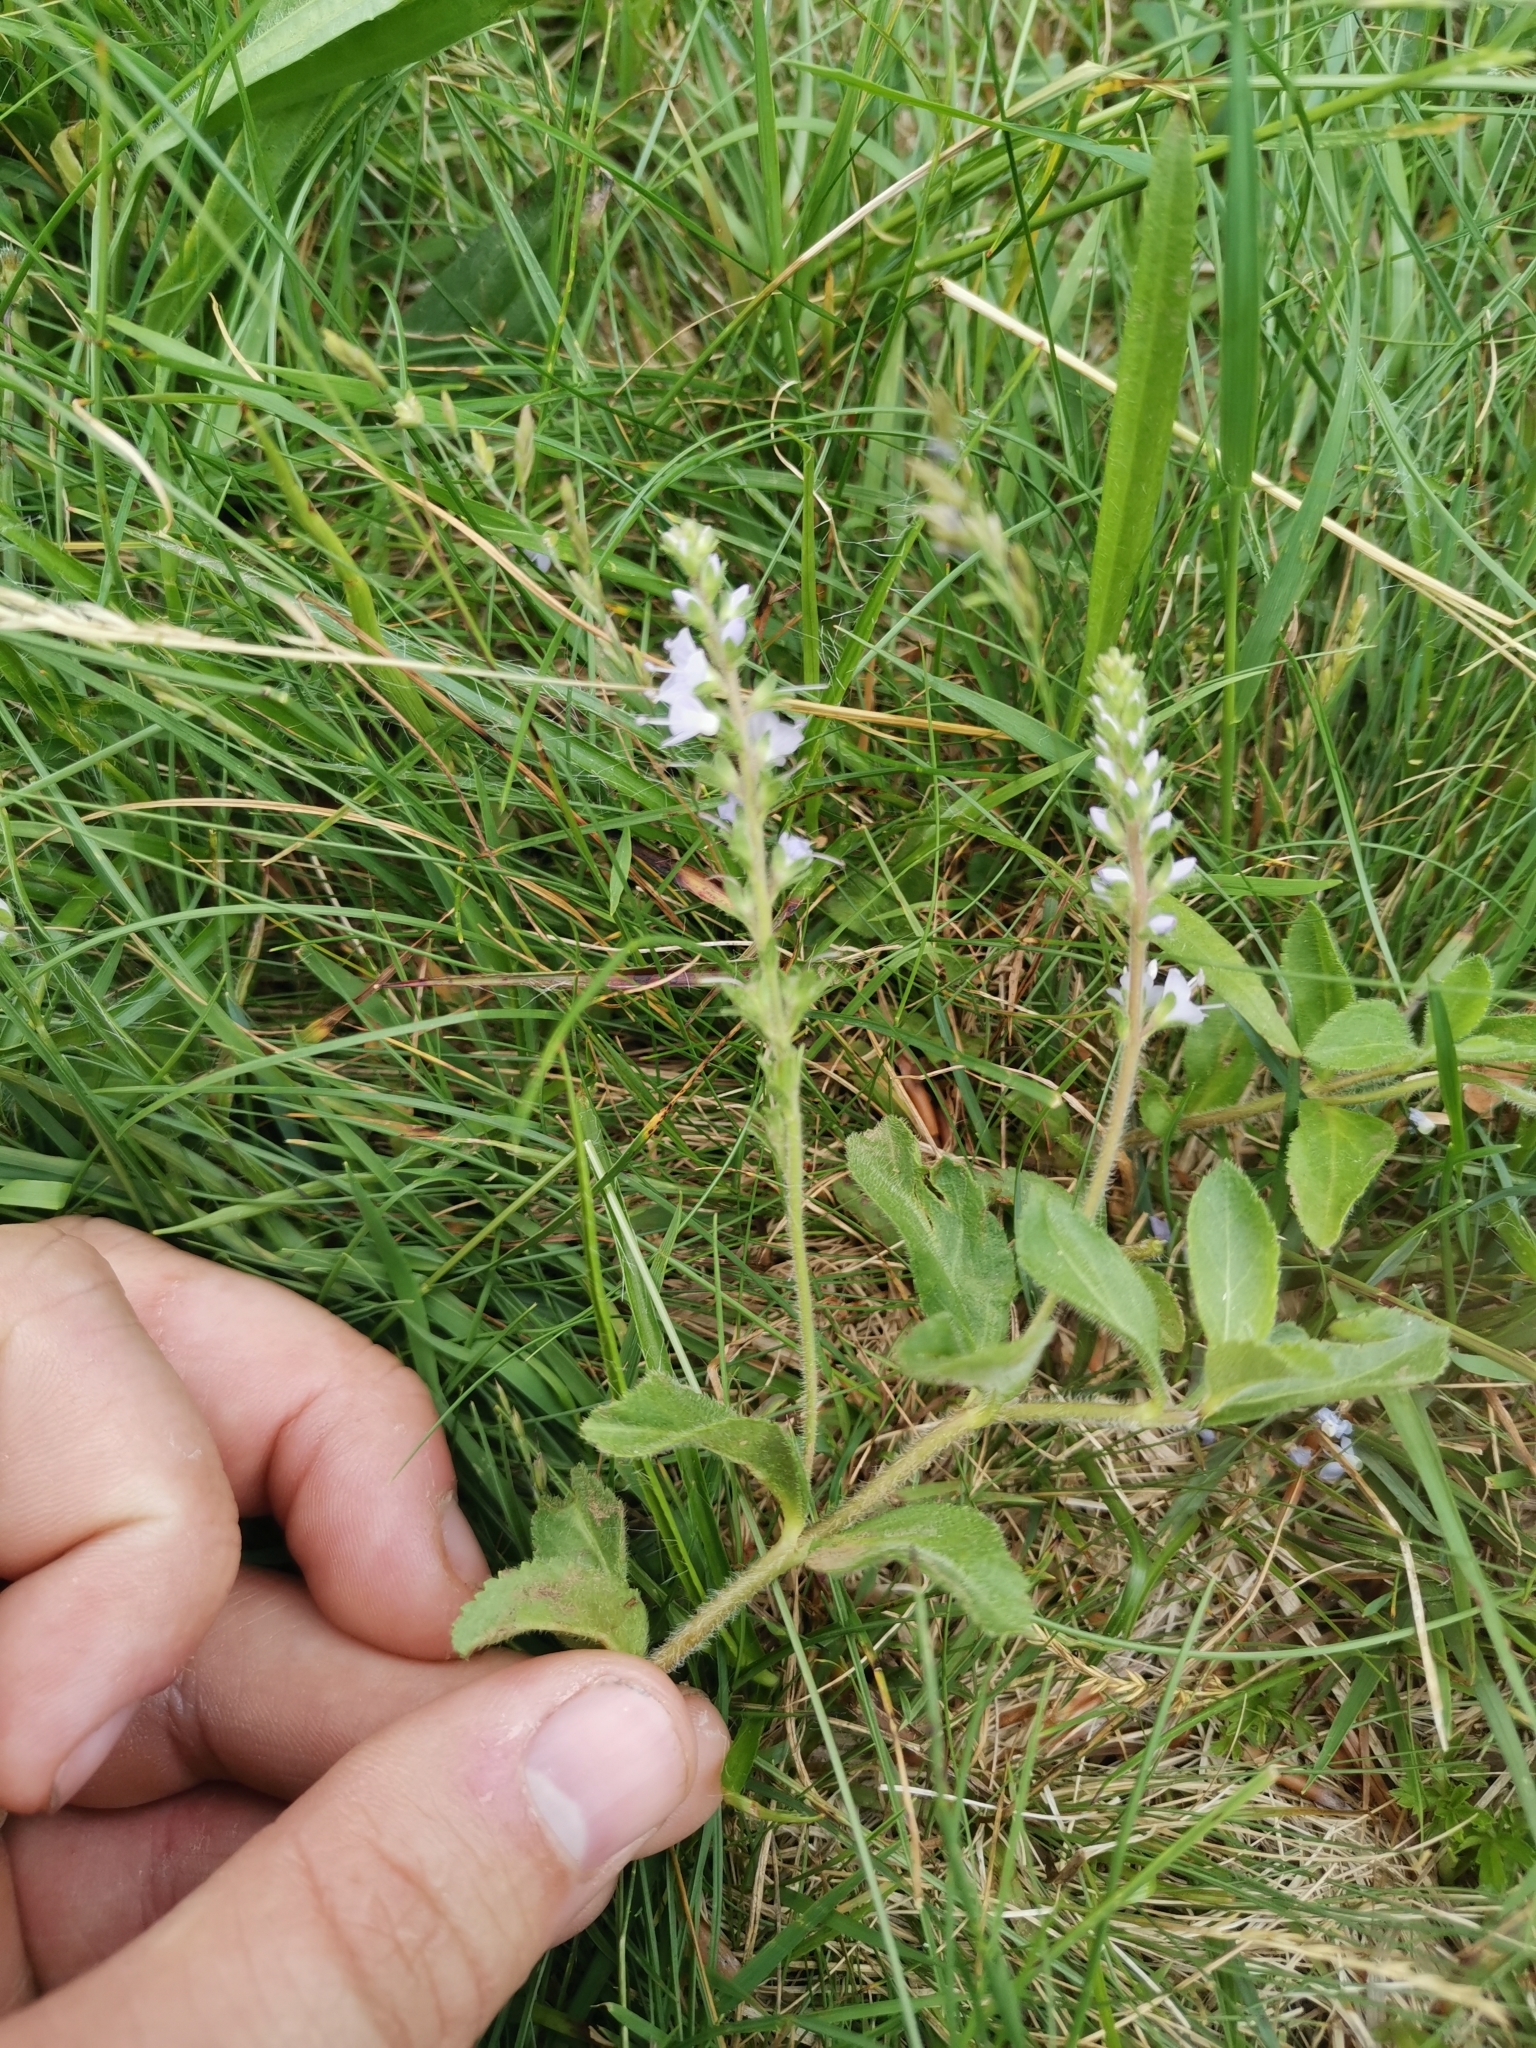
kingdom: Plantae
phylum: Tracheophyta
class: Magnoliopsida
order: Lamiales
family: Plantaginaceae
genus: Veronica
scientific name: Veronica officinalis
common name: Common speedwell
